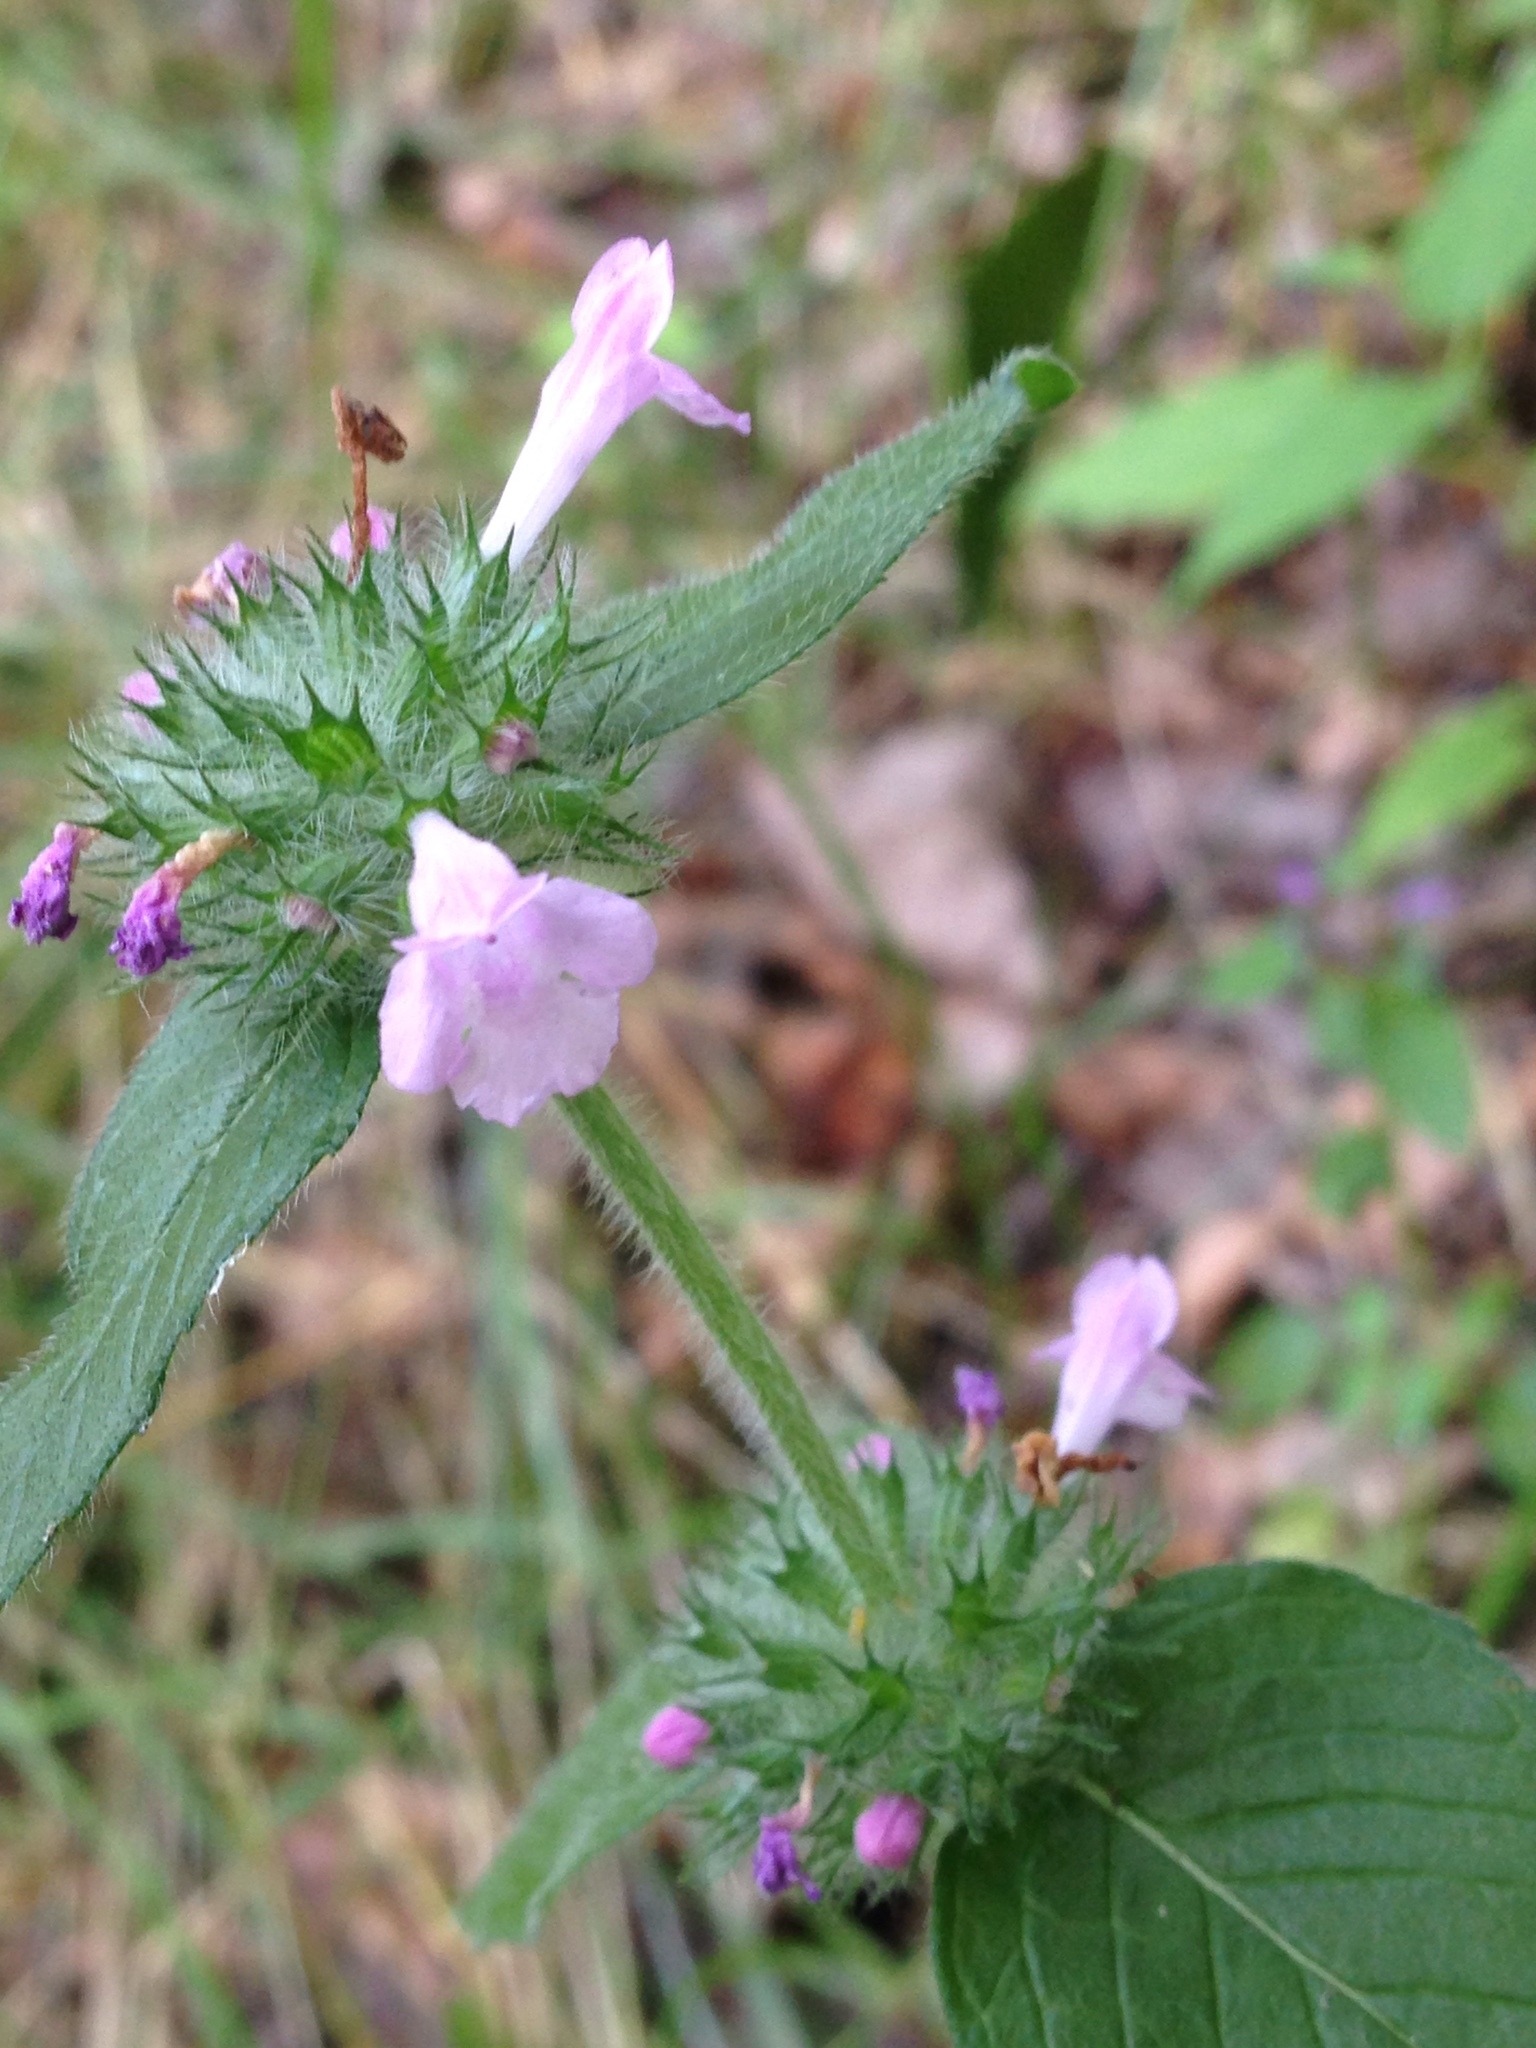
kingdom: Plantae
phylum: Tracheophyta
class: Magnoliopsida
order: Lamiales
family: Lamiaceae
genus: Clinopodium
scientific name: Clinopodium vulgare
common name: Wild basil
